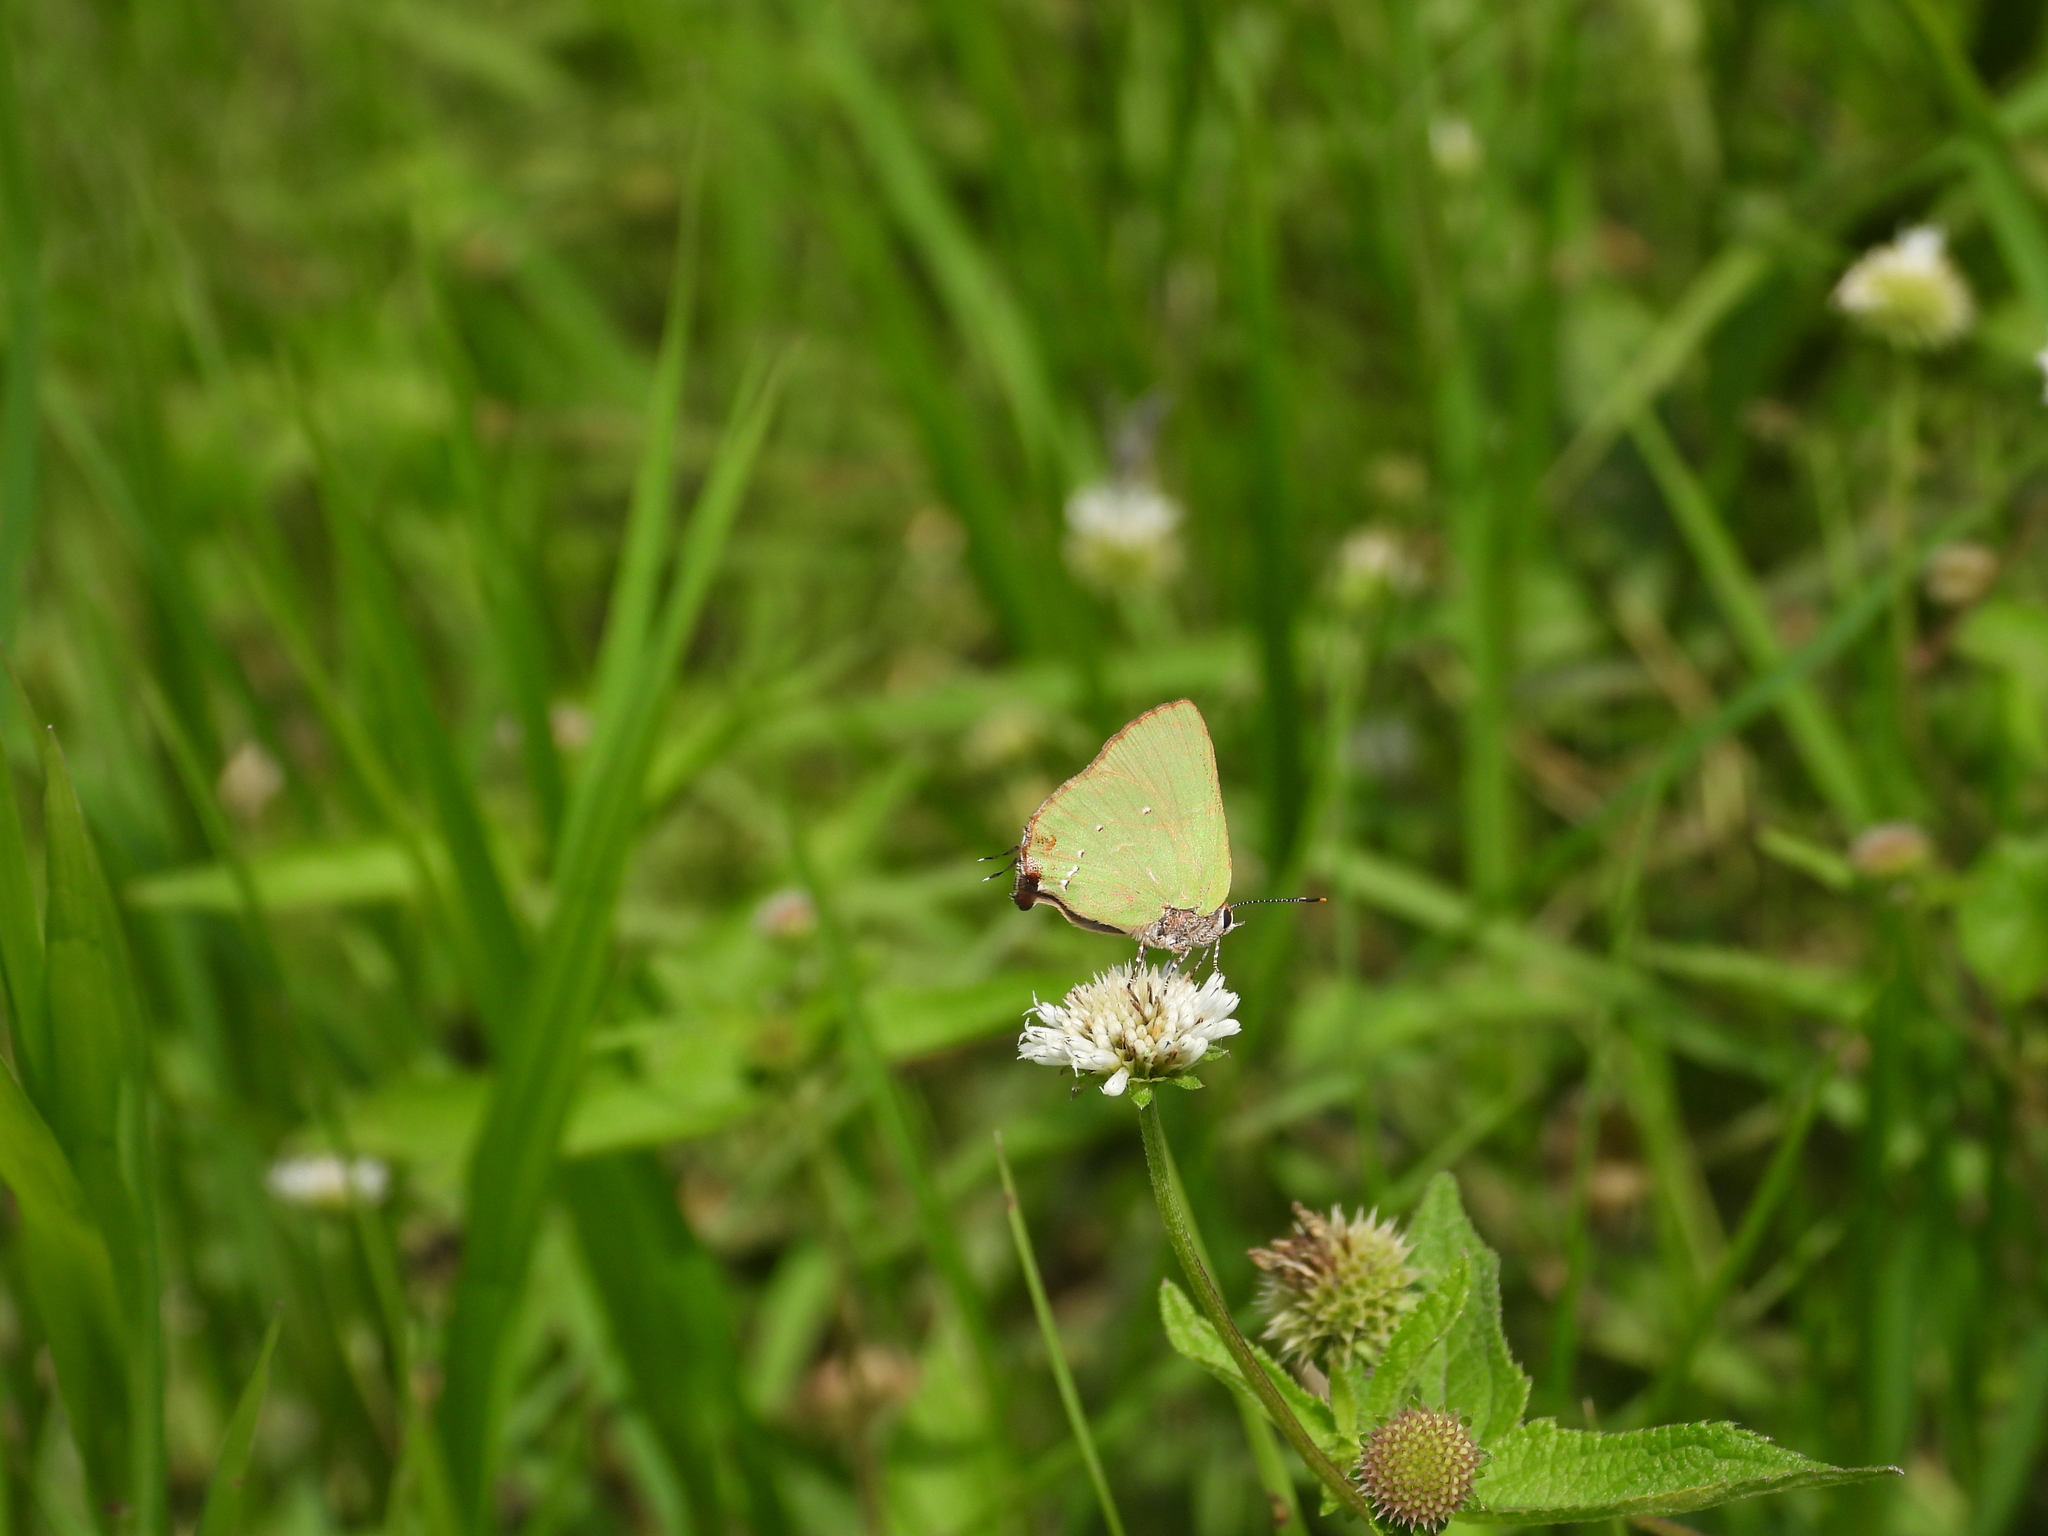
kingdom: Animalia
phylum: Arthropoda
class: Insecta
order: Lepidoptera
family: Lycaenidae
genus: Thecla
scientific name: Thecla amyntor
